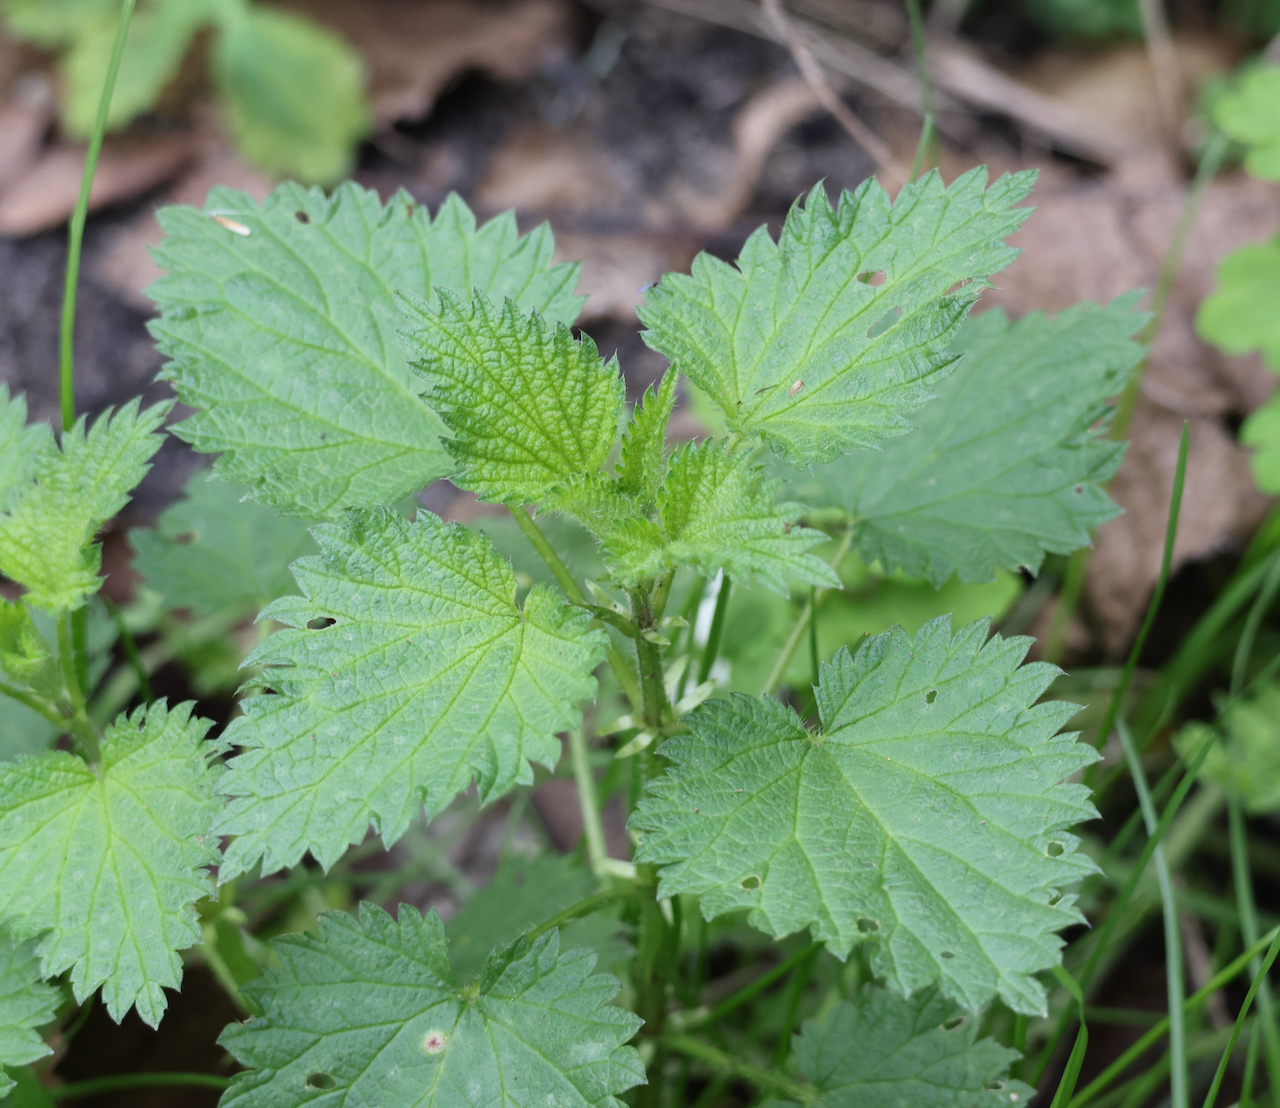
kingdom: Plantae
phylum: Tracheophyta
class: Magnoliopsida
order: Rosales
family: Urticaceae
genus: Urtica
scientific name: Urtica dioica
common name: Common nettle
